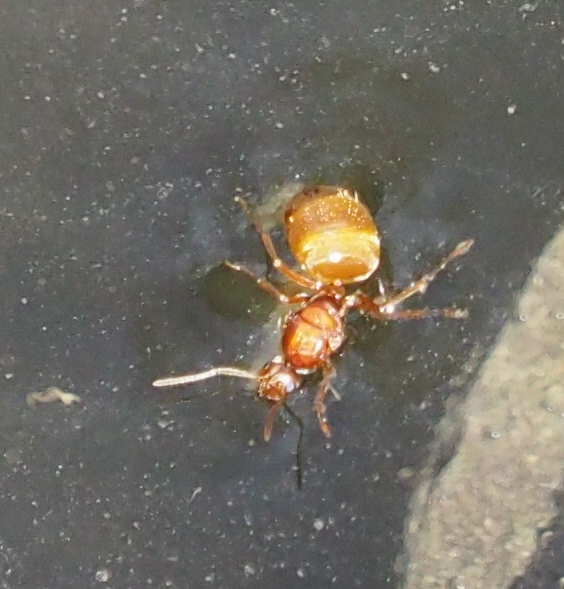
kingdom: Animalia
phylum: Arthropoda
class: Insecta
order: Hymenoptera
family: Formicidae
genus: Prenolepis
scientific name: Prenolepis imparis
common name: Small honey ant
